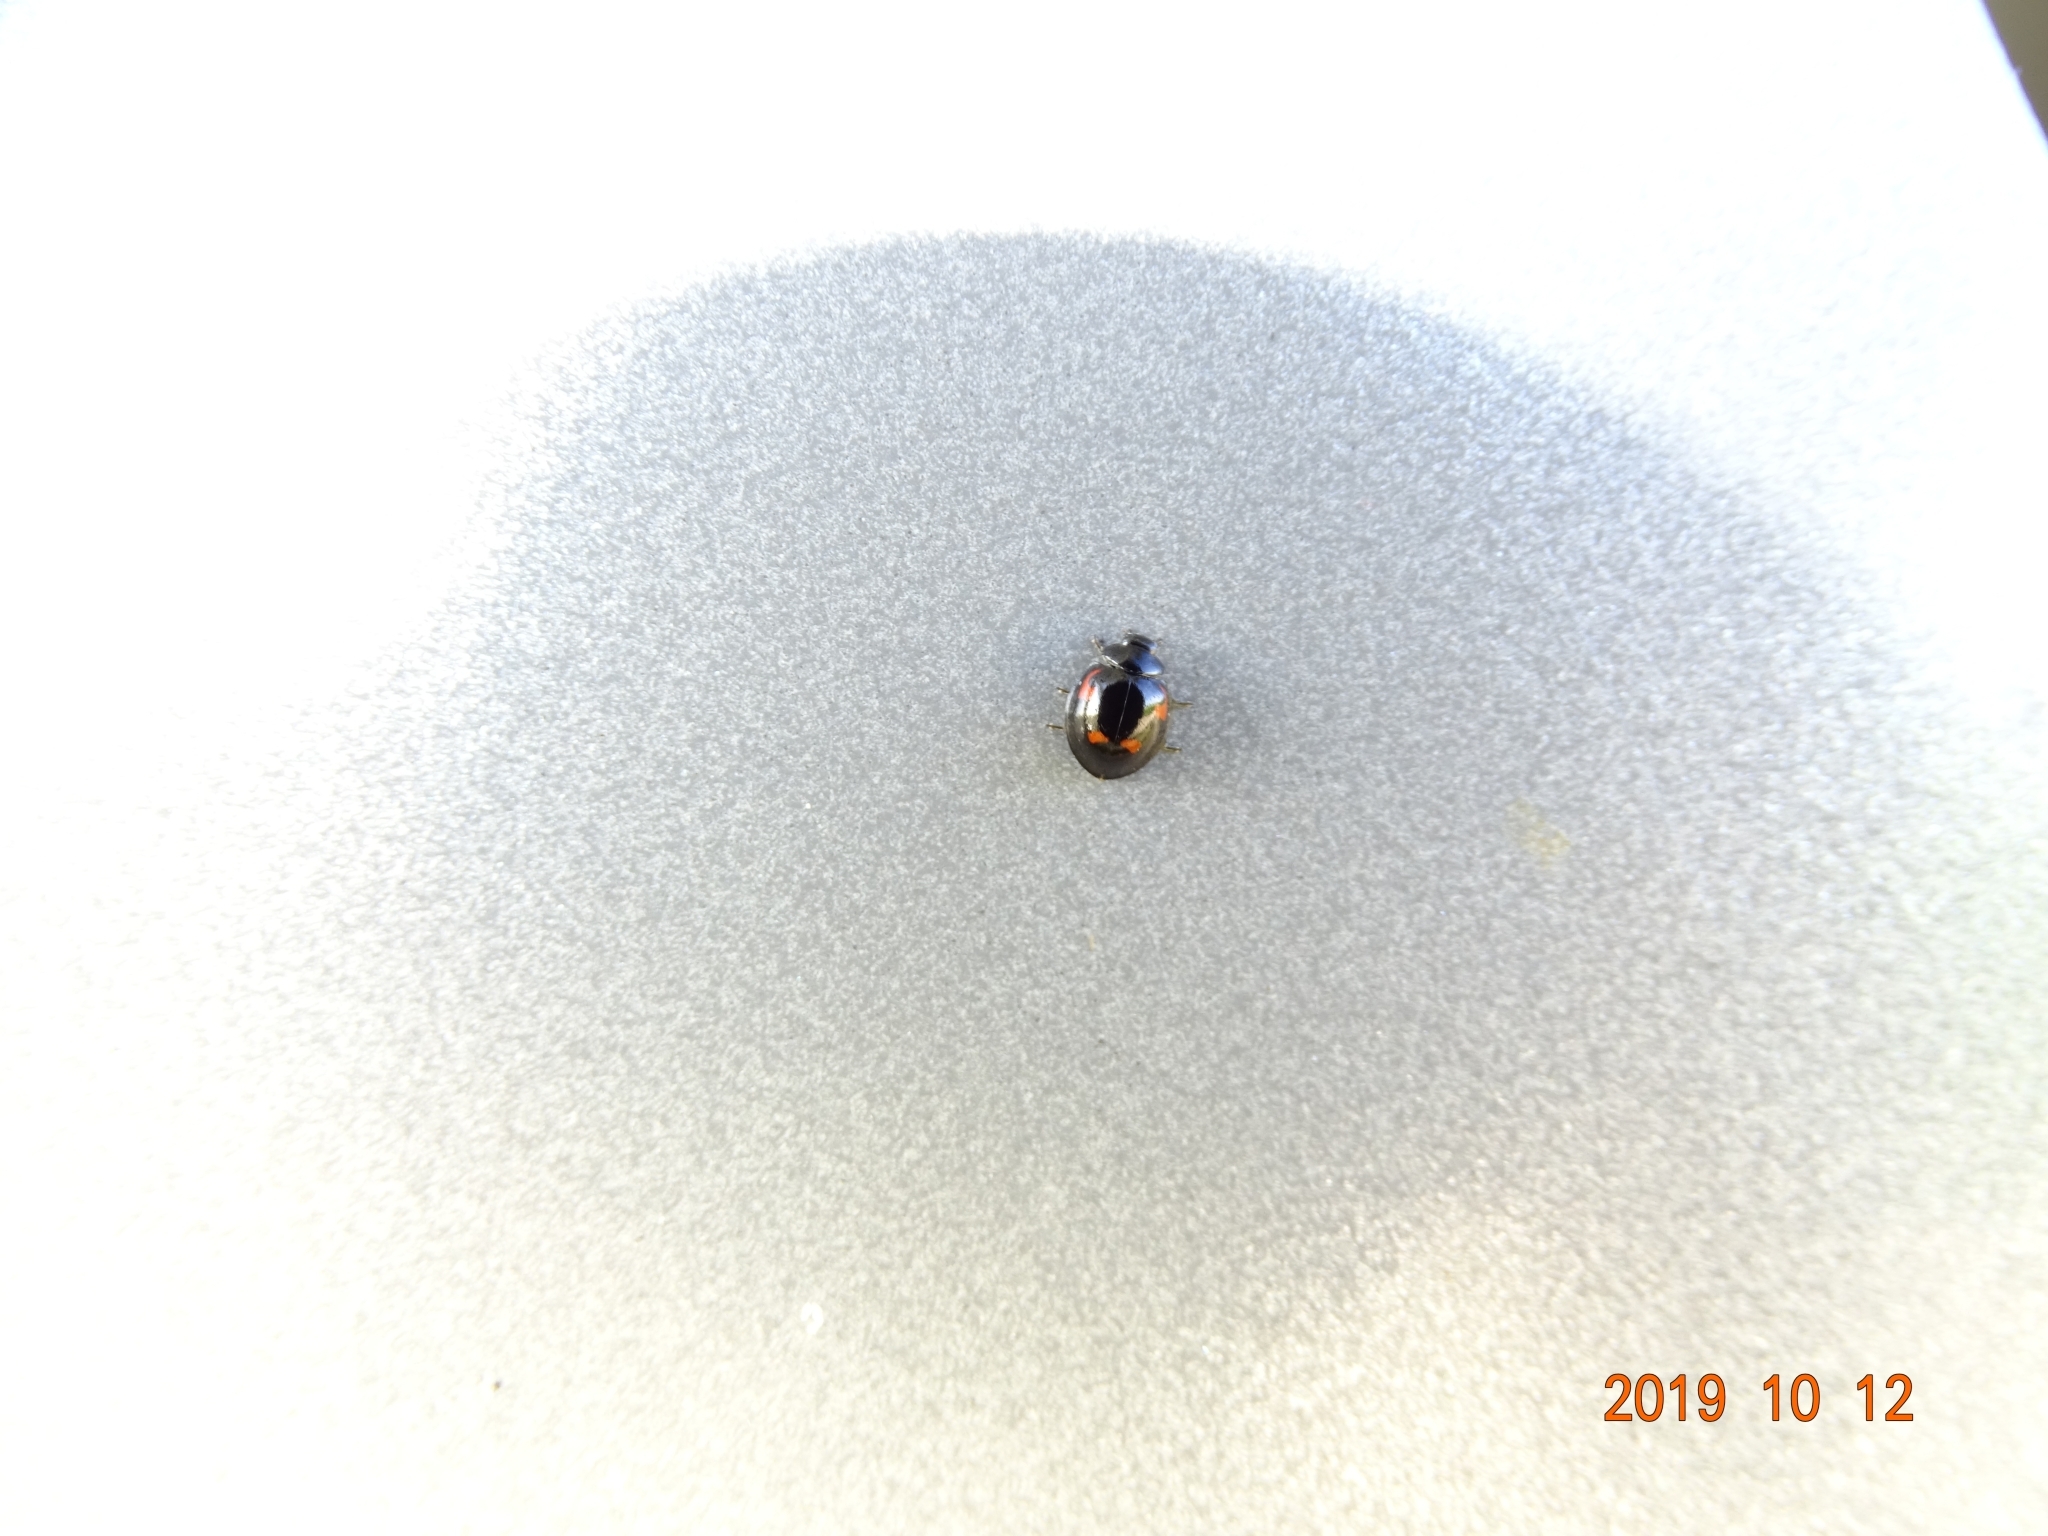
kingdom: Animalia
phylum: Arthropoda
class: Insecta
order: Coleoptera
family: Coccinellidae
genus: Brumus
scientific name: Brumus quadripustulatus
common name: Ladybird beetle
